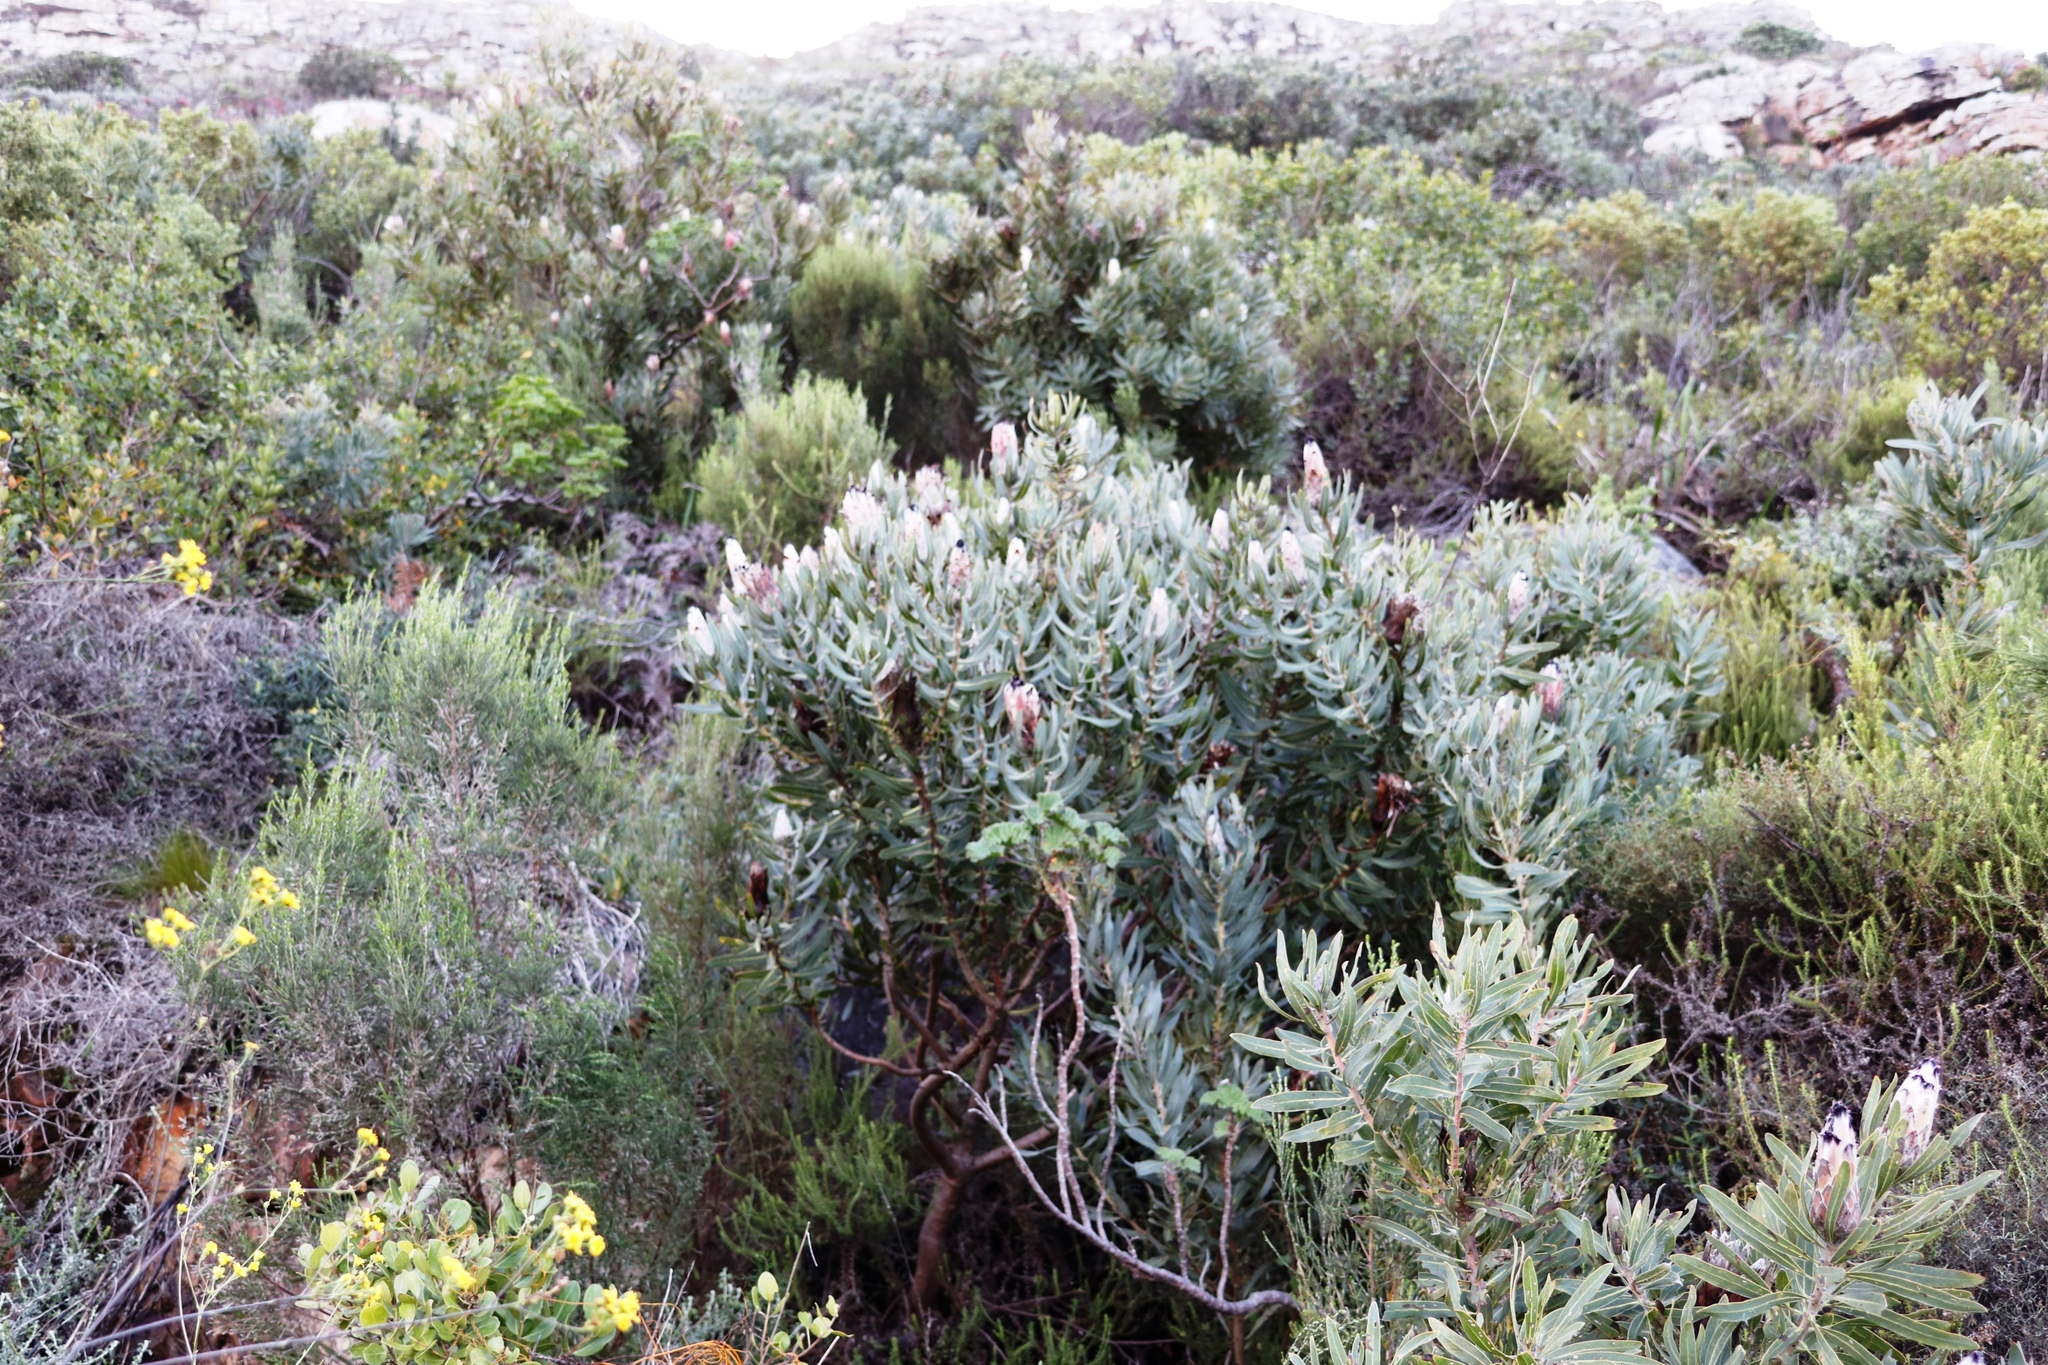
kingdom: Plantae
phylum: Tracheophyta
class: Magnoliopsida
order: Proteales
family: Proteaceae
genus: Protea
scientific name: Protea laurifolia
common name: Grey-leaf sugarbsh
